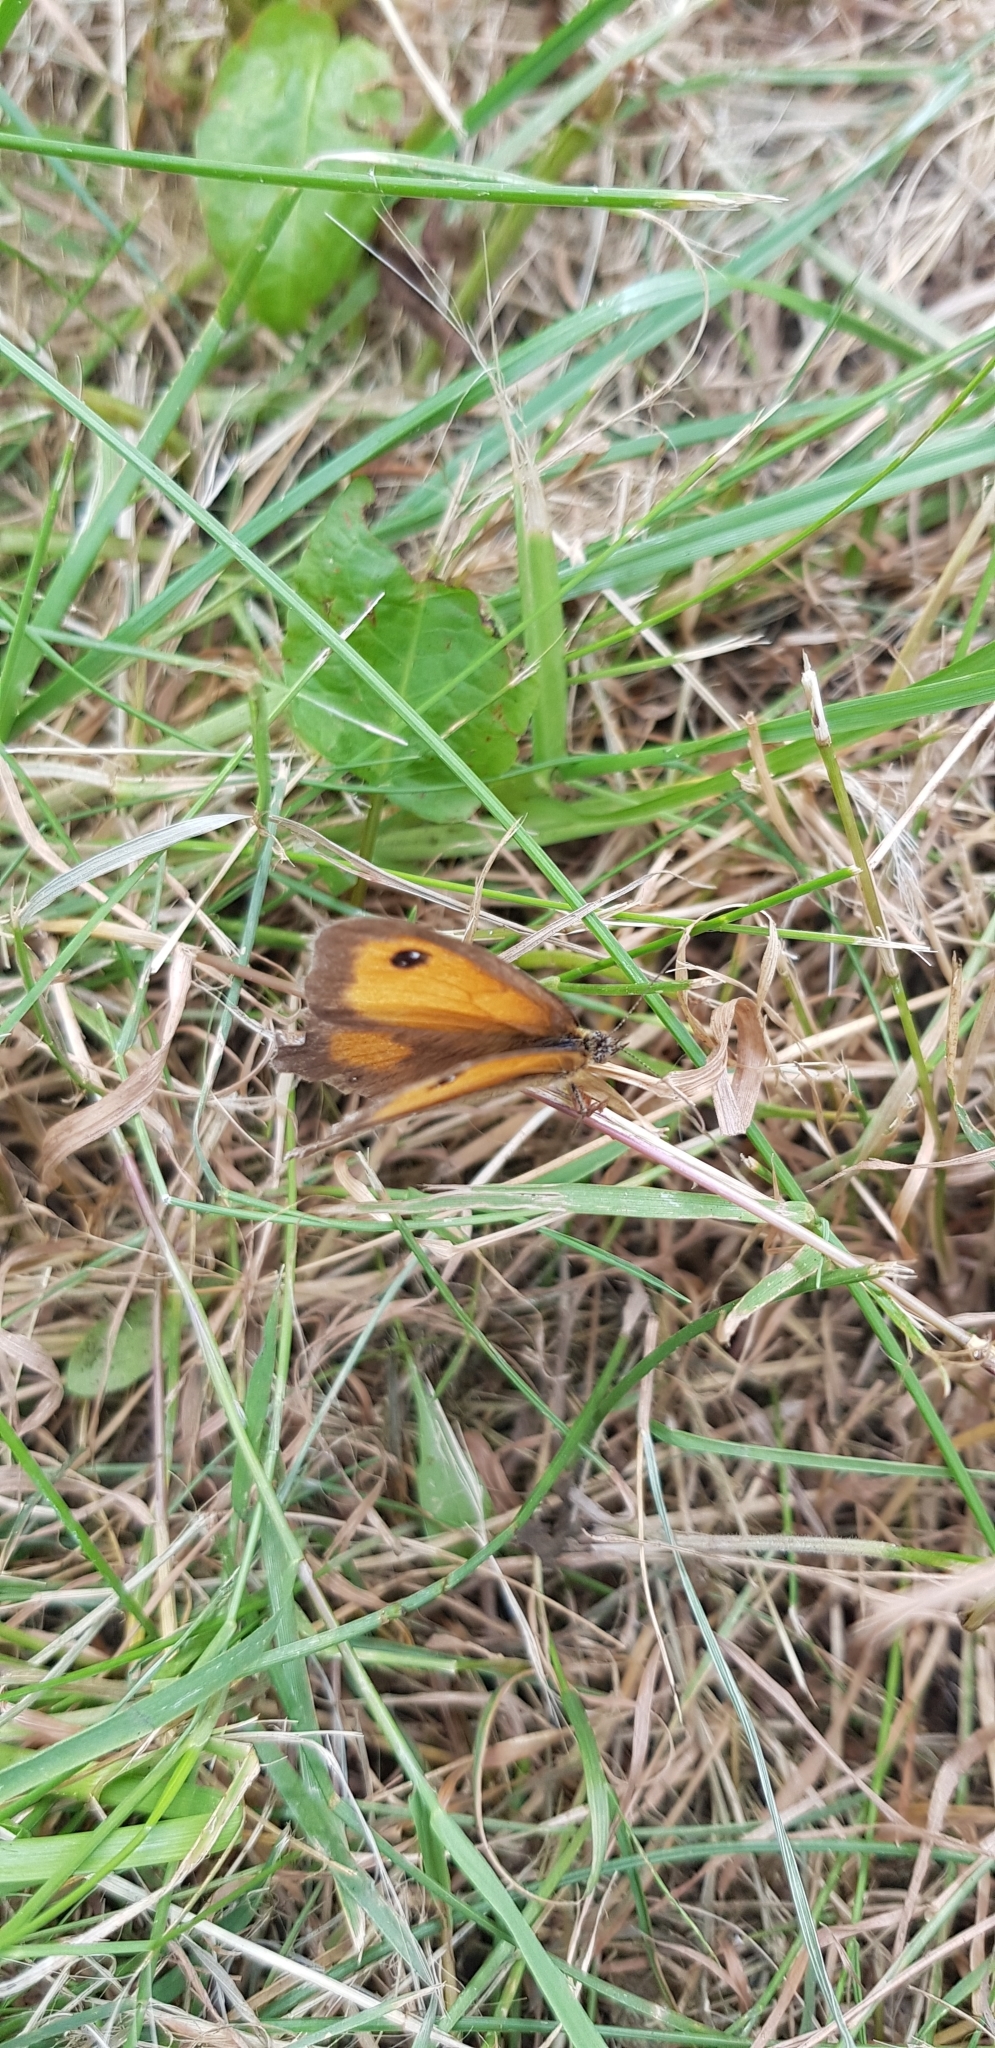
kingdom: Animalia
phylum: Arthropoda
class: Insecta
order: Lepidoptera
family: Nymphalidae
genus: Pyronia
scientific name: Pyronia tithonus
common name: Gatekeeper
